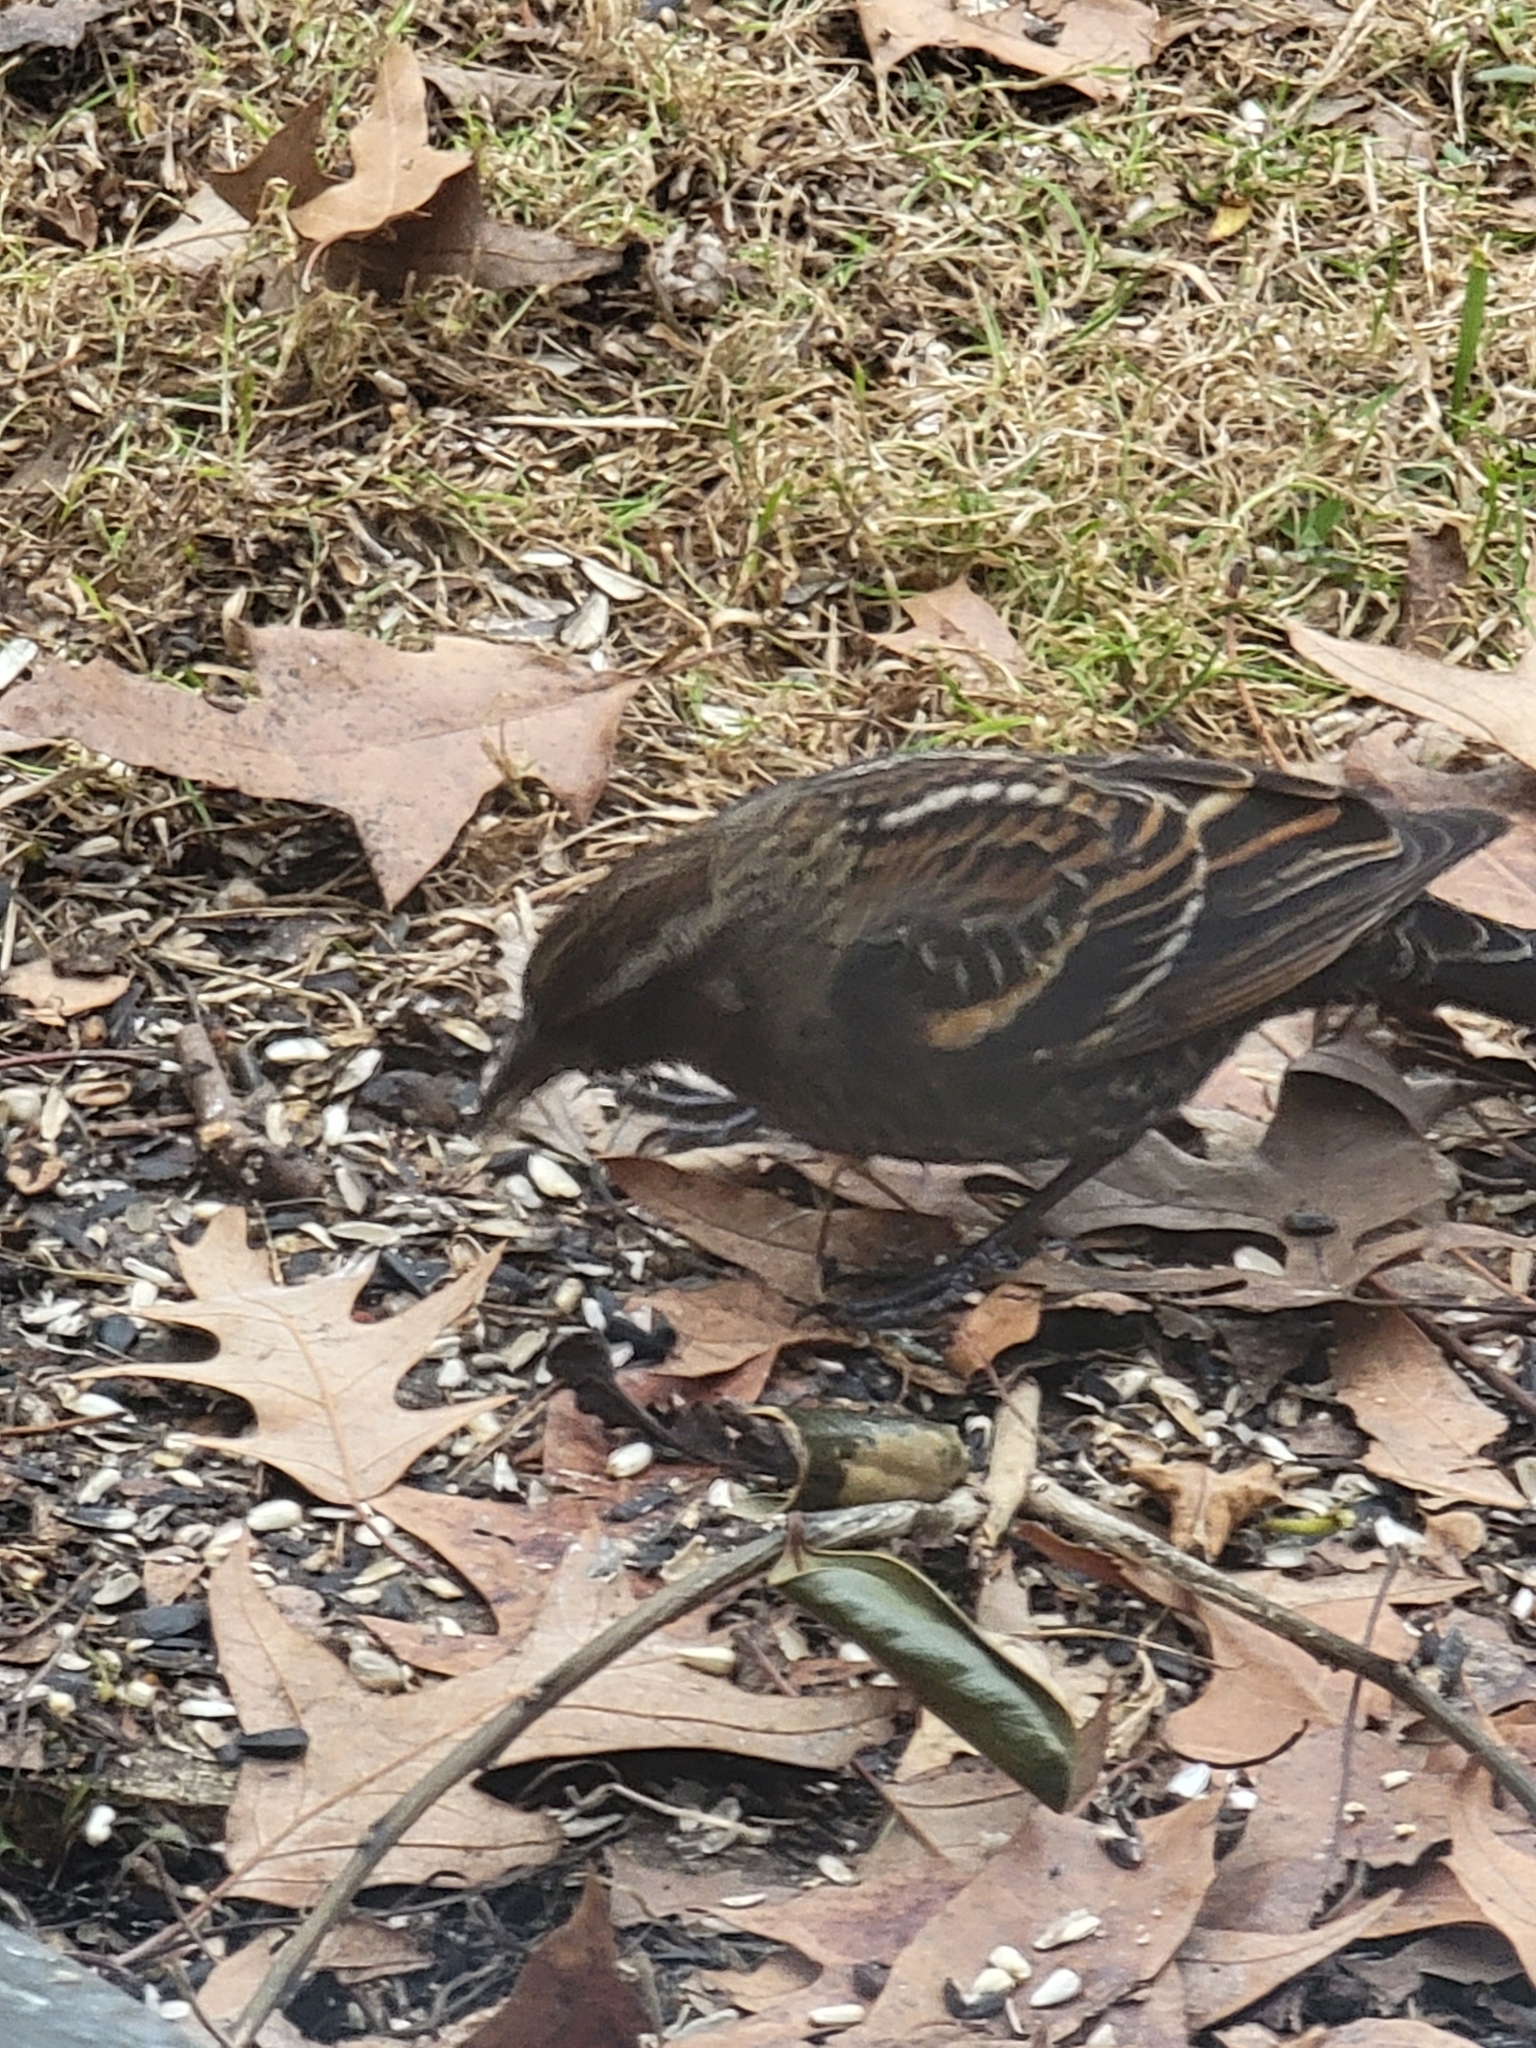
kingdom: Animalia
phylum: Chordata
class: Aves
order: Passeriformes
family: Icteridae
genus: Agelaius
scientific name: Agelaius phoeniceus
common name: Red-winged blackbird
